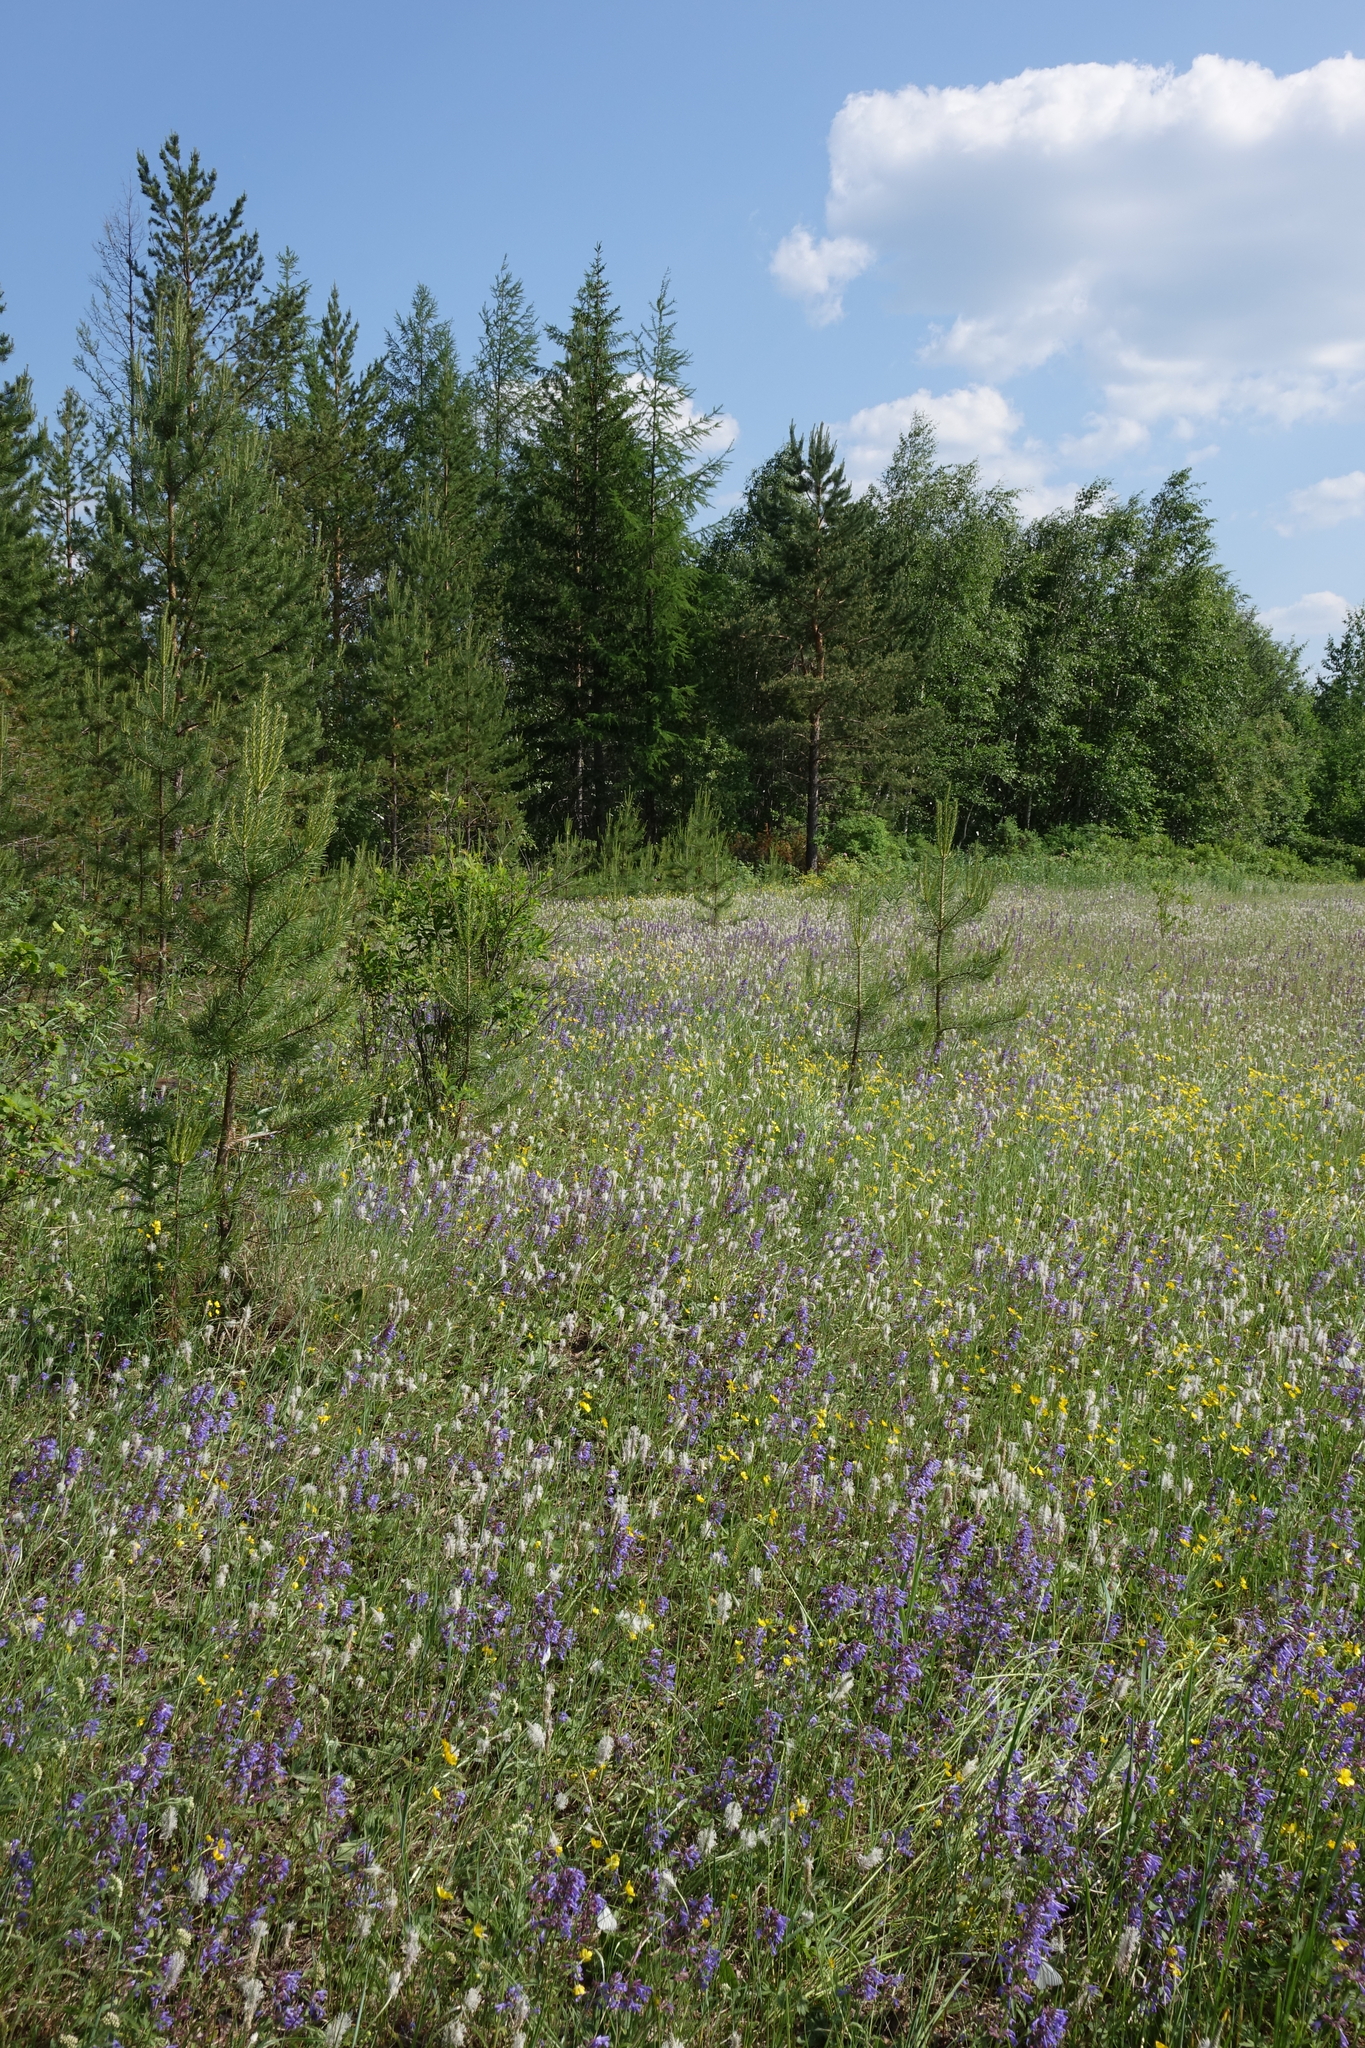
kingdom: Plantae
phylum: Tracheophyta
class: Magnoliopsida
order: Lamiales
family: Lamiaceae
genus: Dracocephalum
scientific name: Dracocephalum nutans
